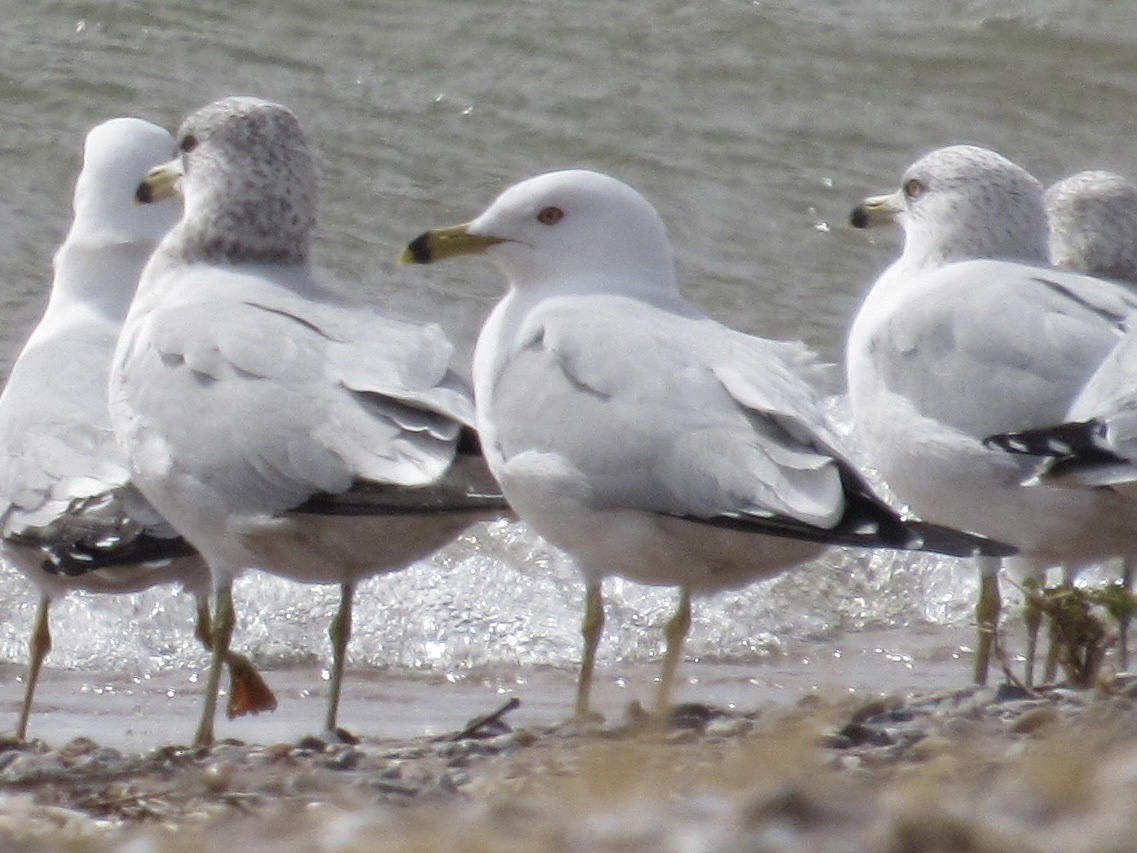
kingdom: Animalia
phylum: Chordata
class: Aves
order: Charadriiformes
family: Laridae
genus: Larus
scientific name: Larus delawarensis
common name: Ring-billed gull
